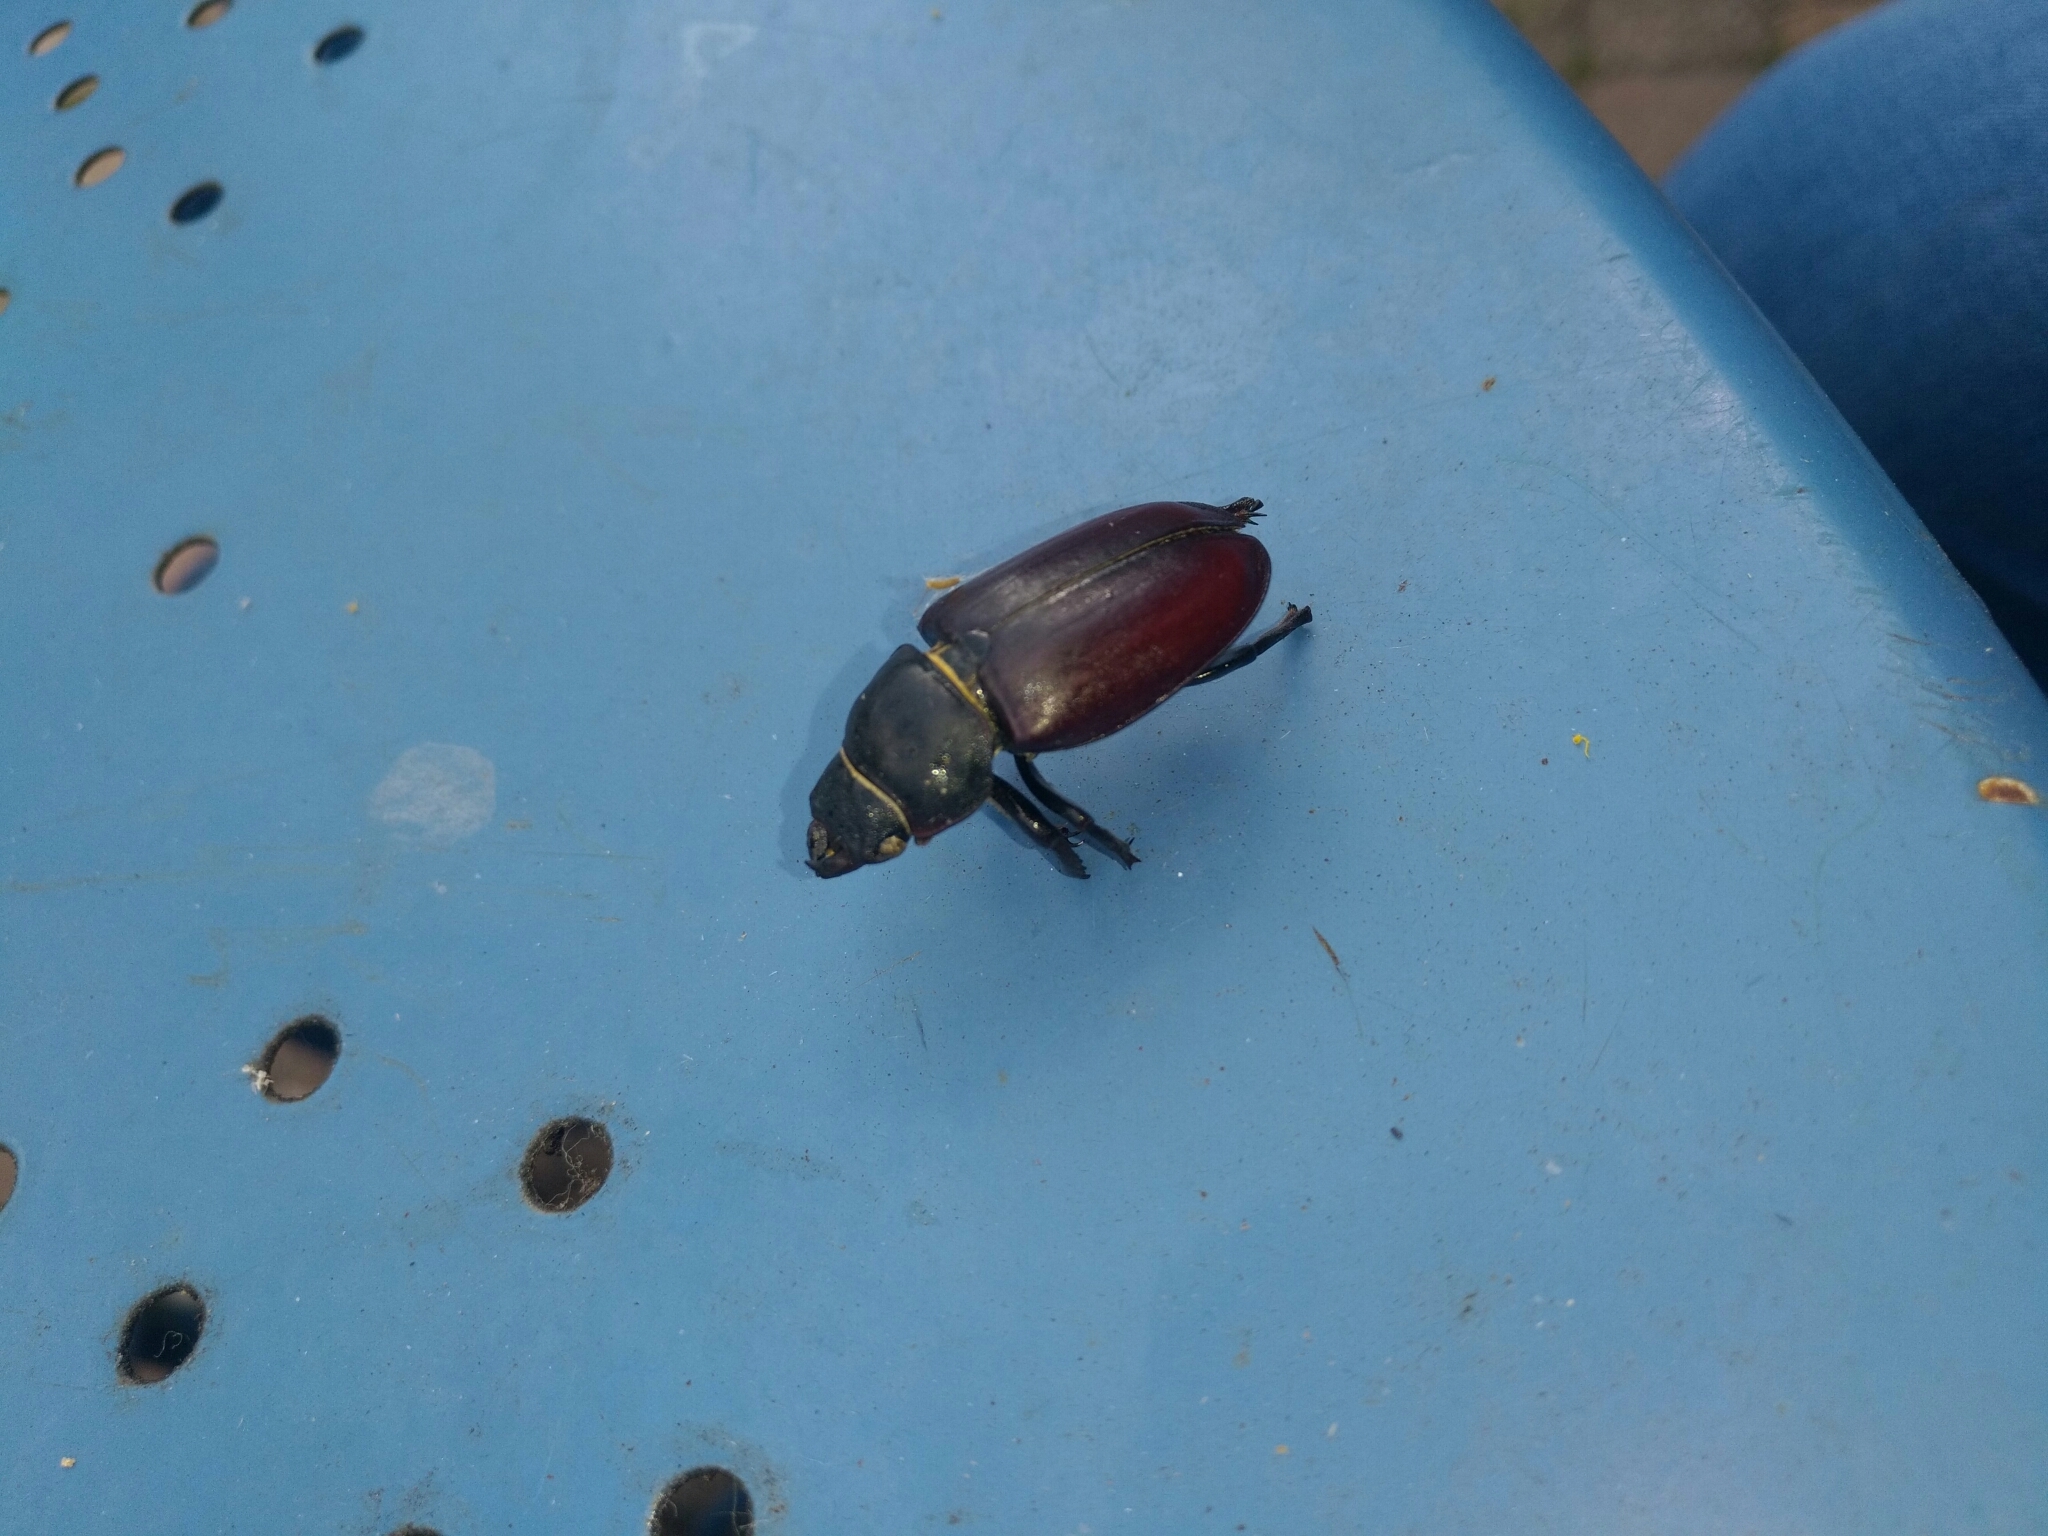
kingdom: Animalia
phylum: Arthropoda
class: Insecta
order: Coleoptera
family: Lucanidae
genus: Lucanus
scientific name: Lucanus cervus
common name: Stag beetle
